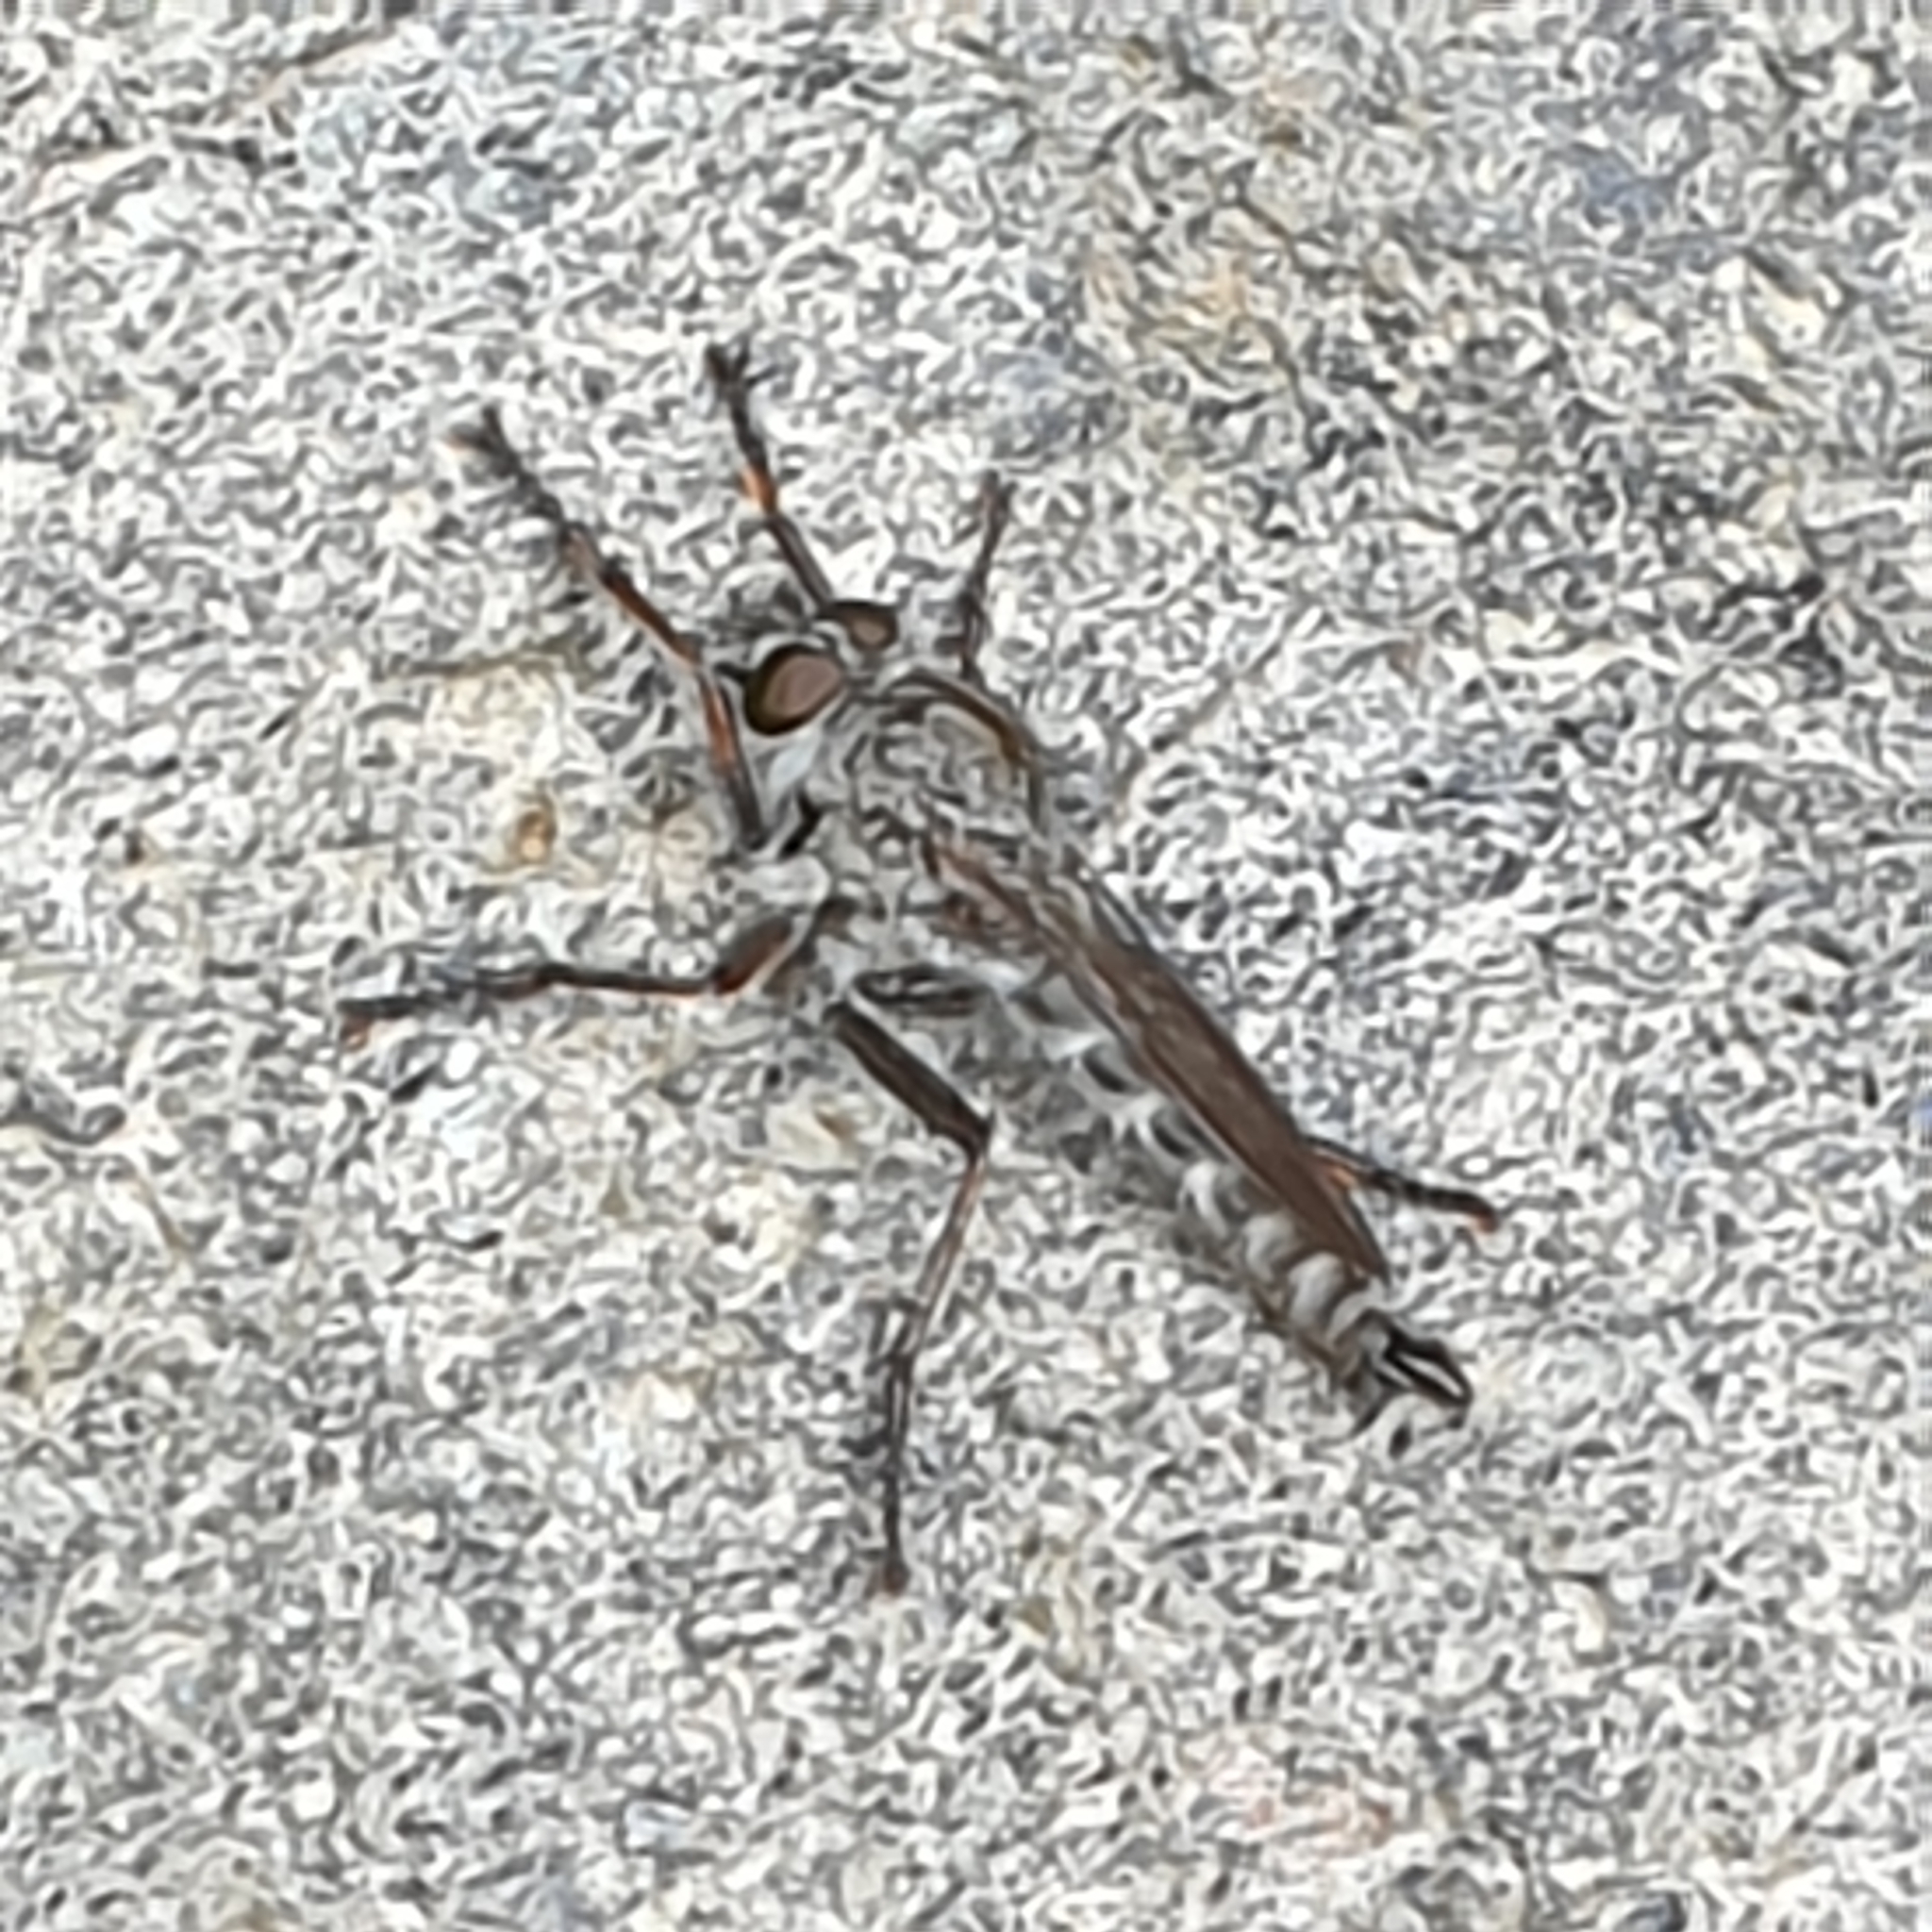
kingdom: Animalia
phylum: Arthropoda
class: Insecta
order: Diptera
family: Asilidae
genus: Machimus
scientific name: Machimus atricapillus
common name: Kite-tailed robberfly
